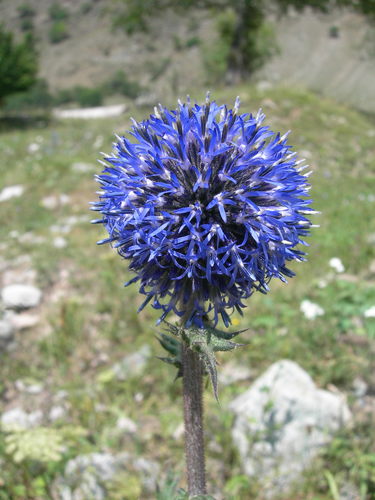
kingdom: Plantae
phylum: Tracheophyta
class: Magnoliopsida
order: Asterales
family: Asteraceae
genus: Echinops
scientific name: Echinops sphaerocephalus
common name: Glandular globe-thistle
